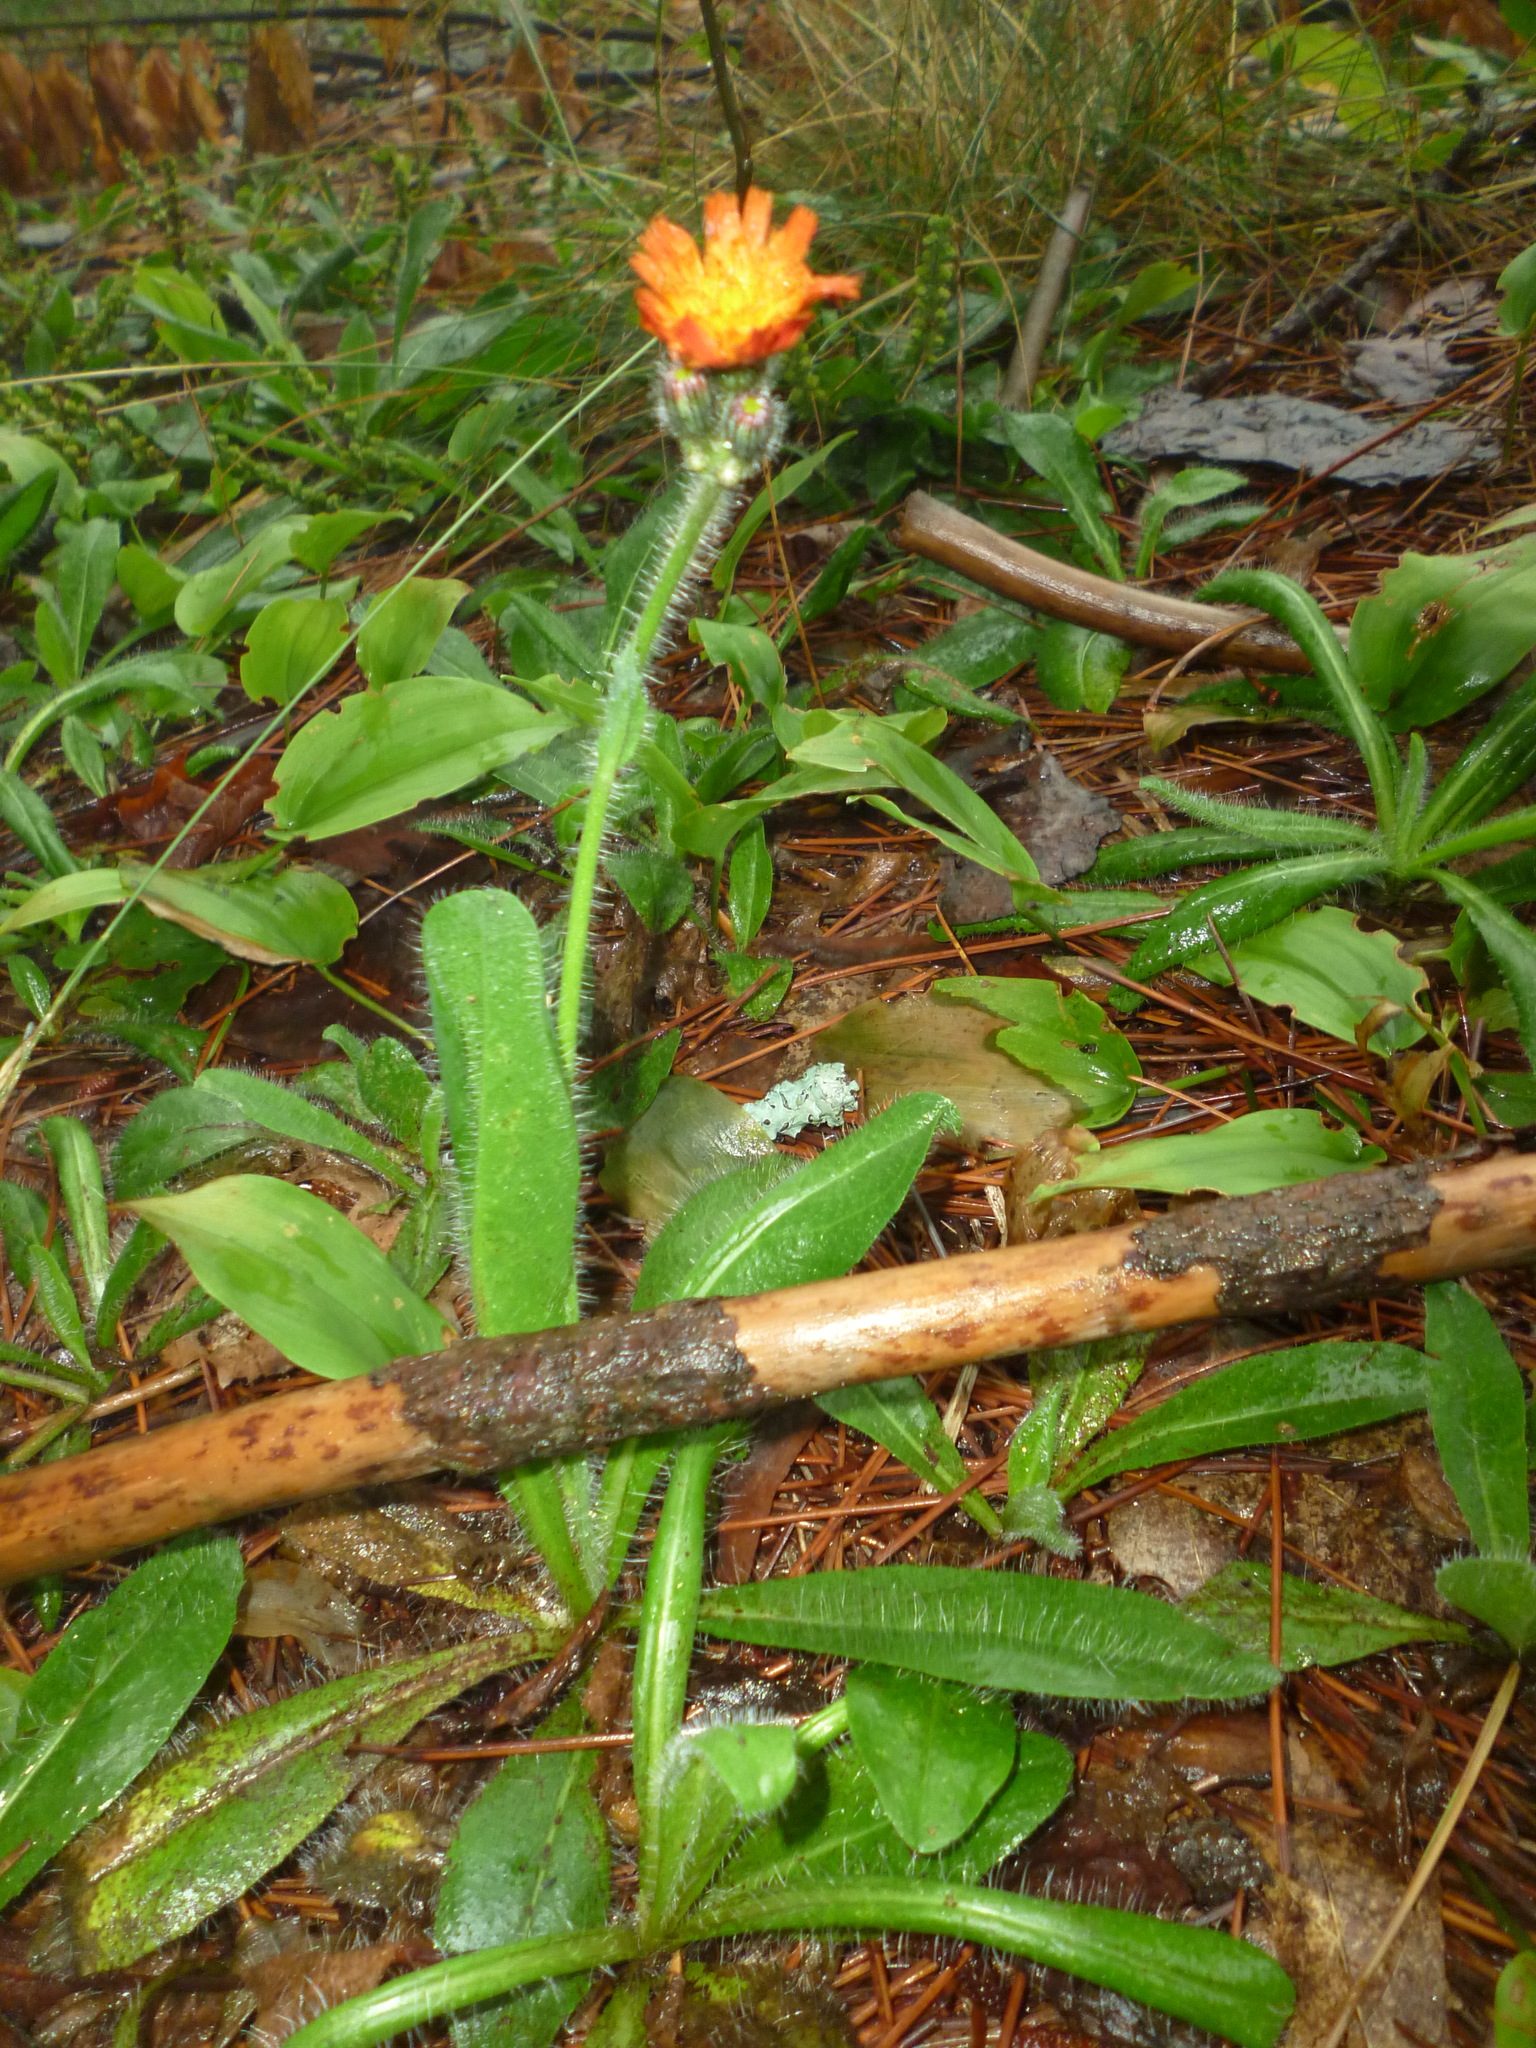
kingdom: Plantae
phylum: Tracheophyta
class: Magnoliopsida
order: Asterales
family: Asteraceae
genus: Pilosella
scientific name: Pilosella aurantiaca
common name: Fox-and-cubs
